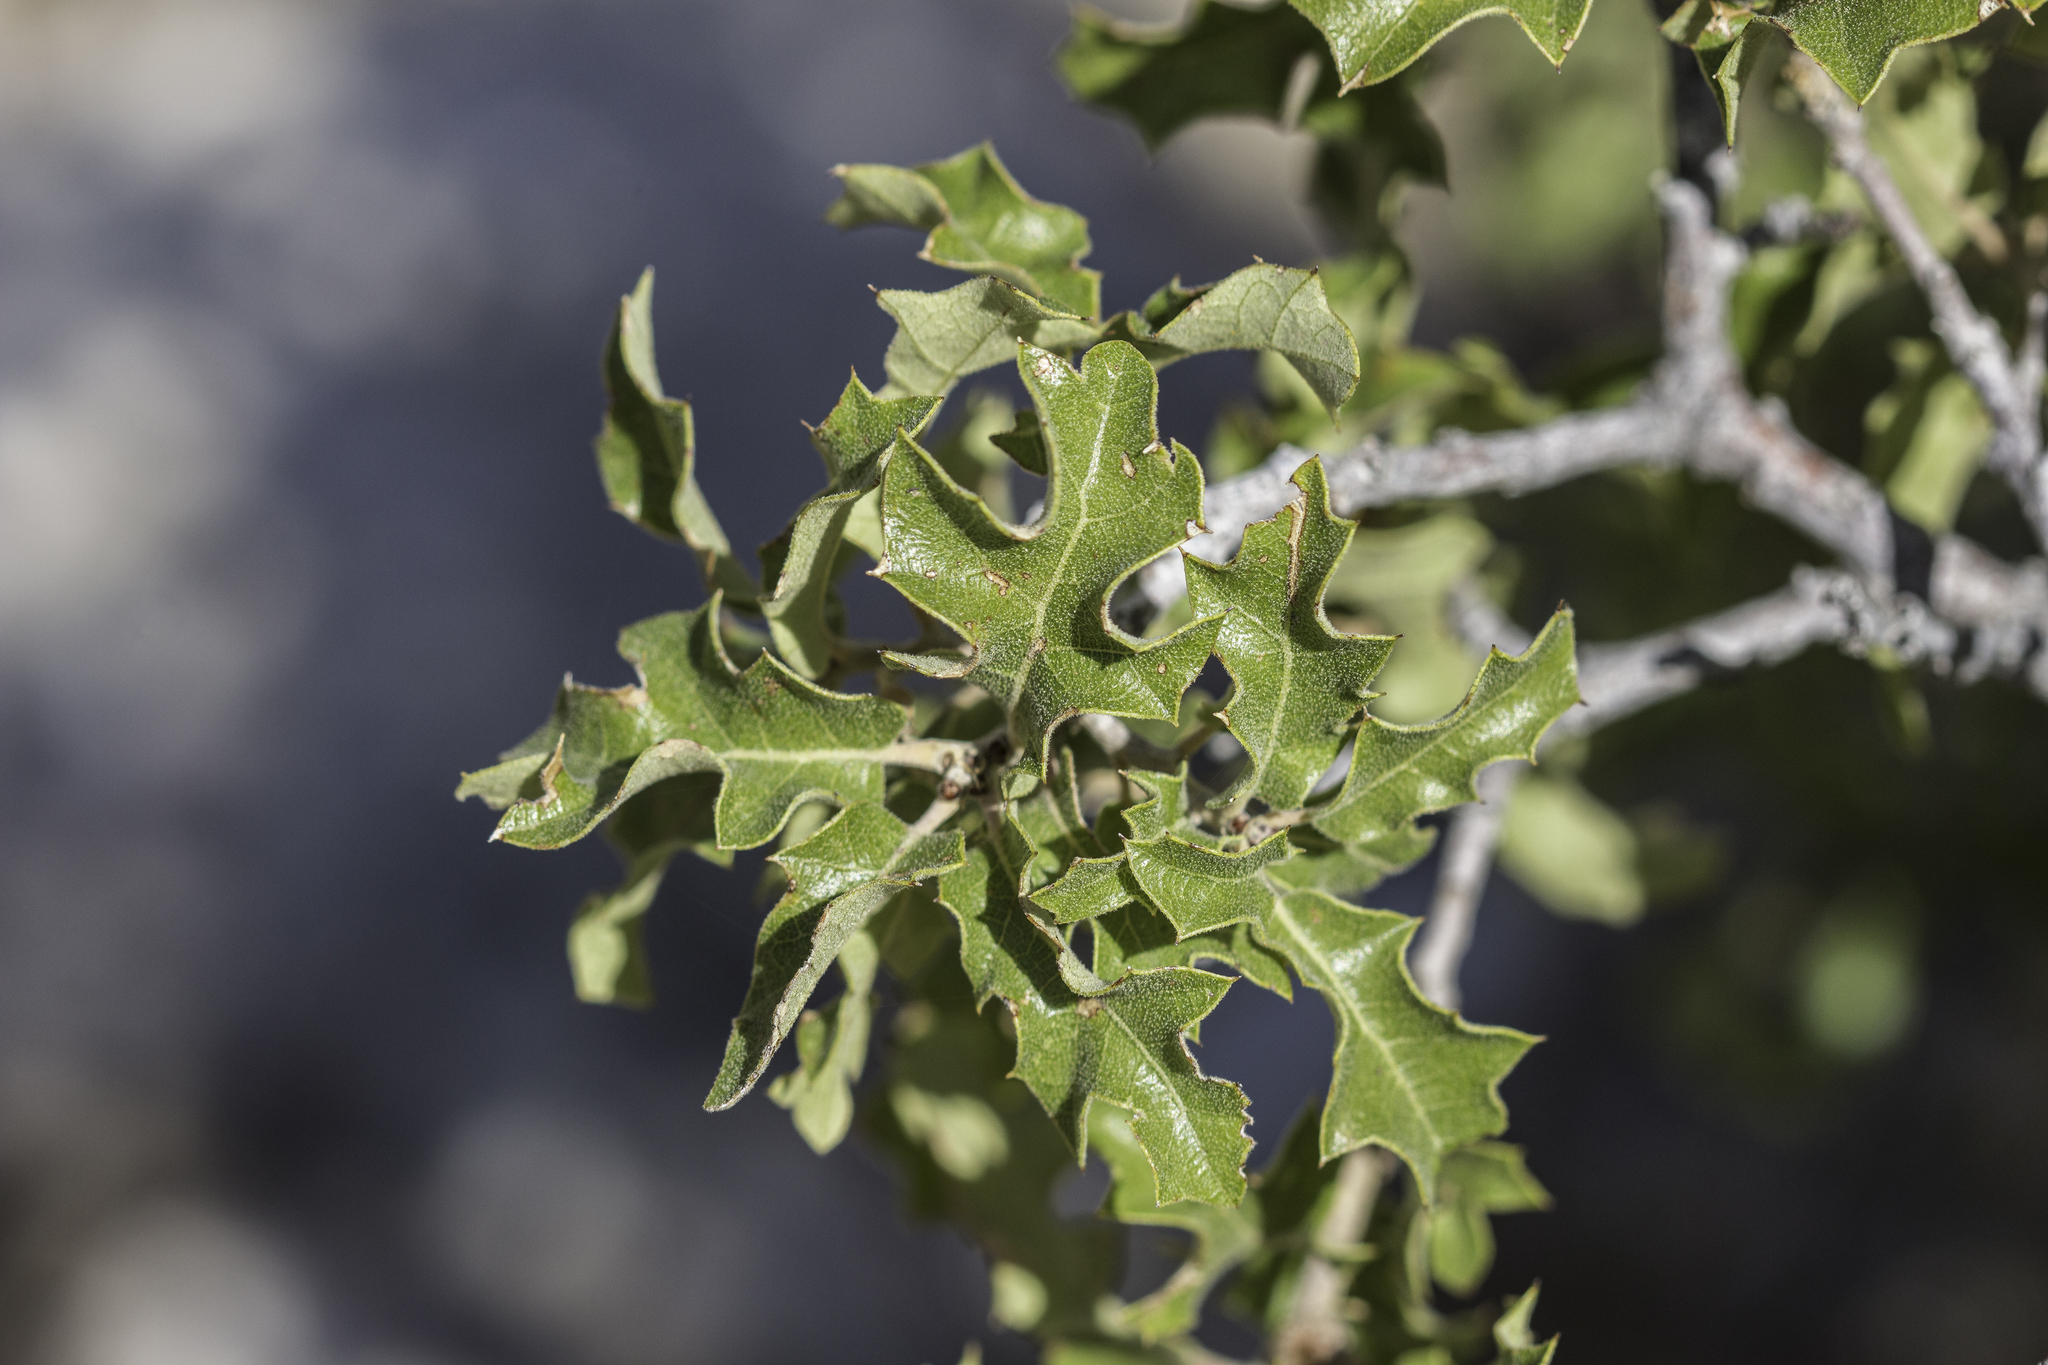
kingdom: Plantae
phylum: Tracheophyta
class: Magnoliopsida
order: Fagales
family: Fagaceae
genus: Quercus
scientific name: Quercus pungens
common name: Pungent oak
